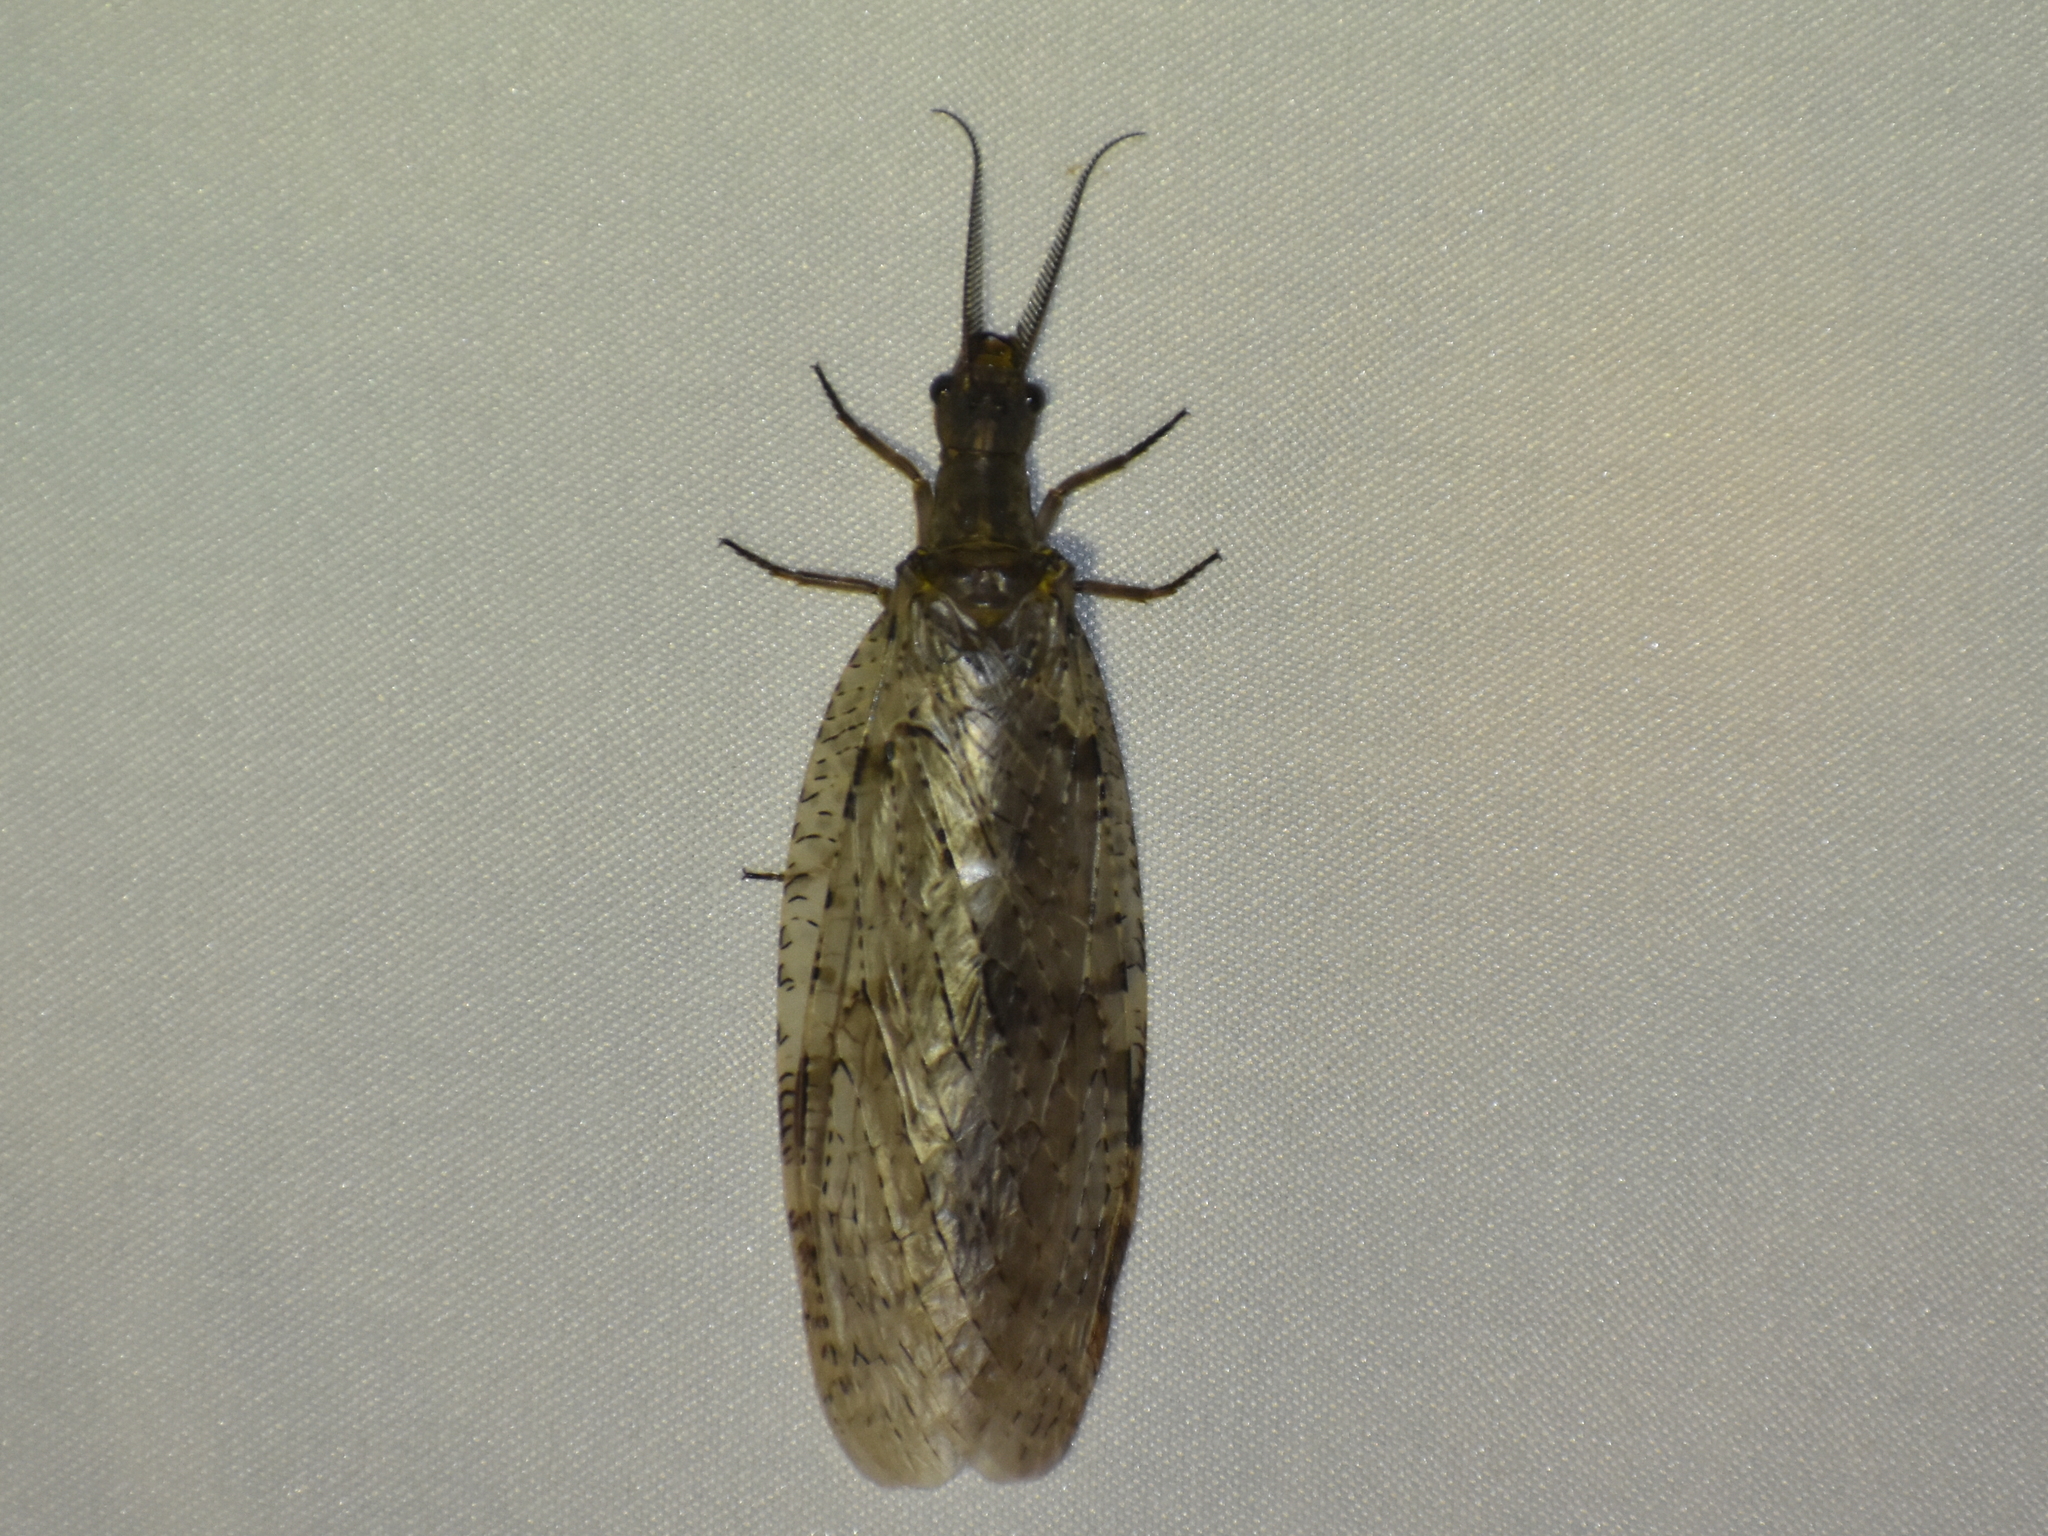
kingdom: Animalia
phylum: Arthropoda
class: Insecta
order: Megaloptera
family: Corydalidae
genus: Chauliodes
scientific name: Chauliodes pectinicornis
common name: Summer fishfly
